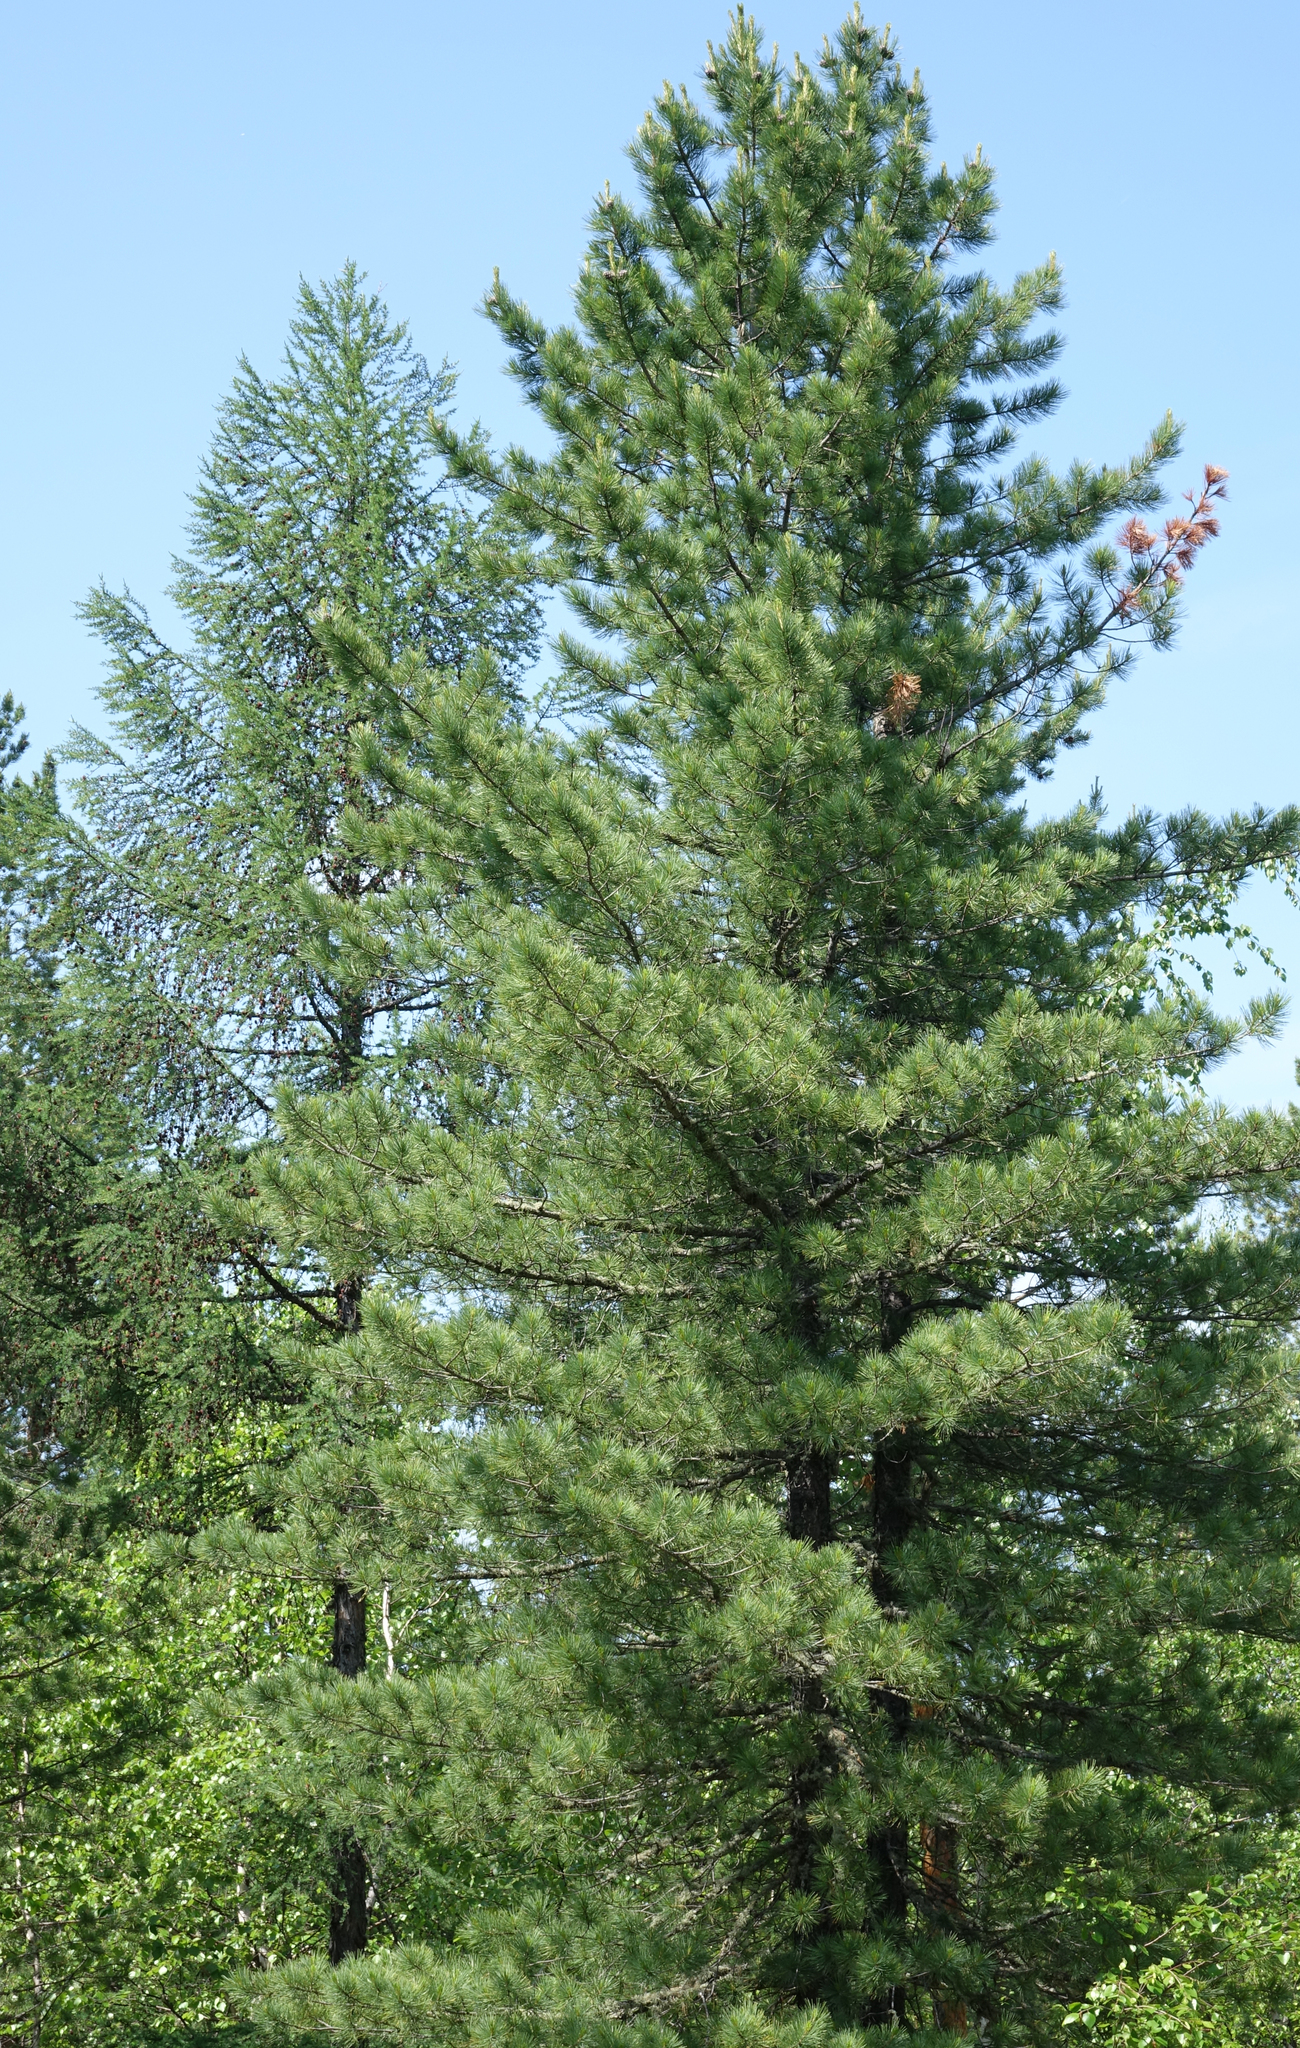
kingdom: Plantae
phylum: Tracheophyta
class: Pinopsida
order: Pinales
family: Pinaceae
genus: Pinus
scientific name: Pinus sibirica
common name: Siberian pine
